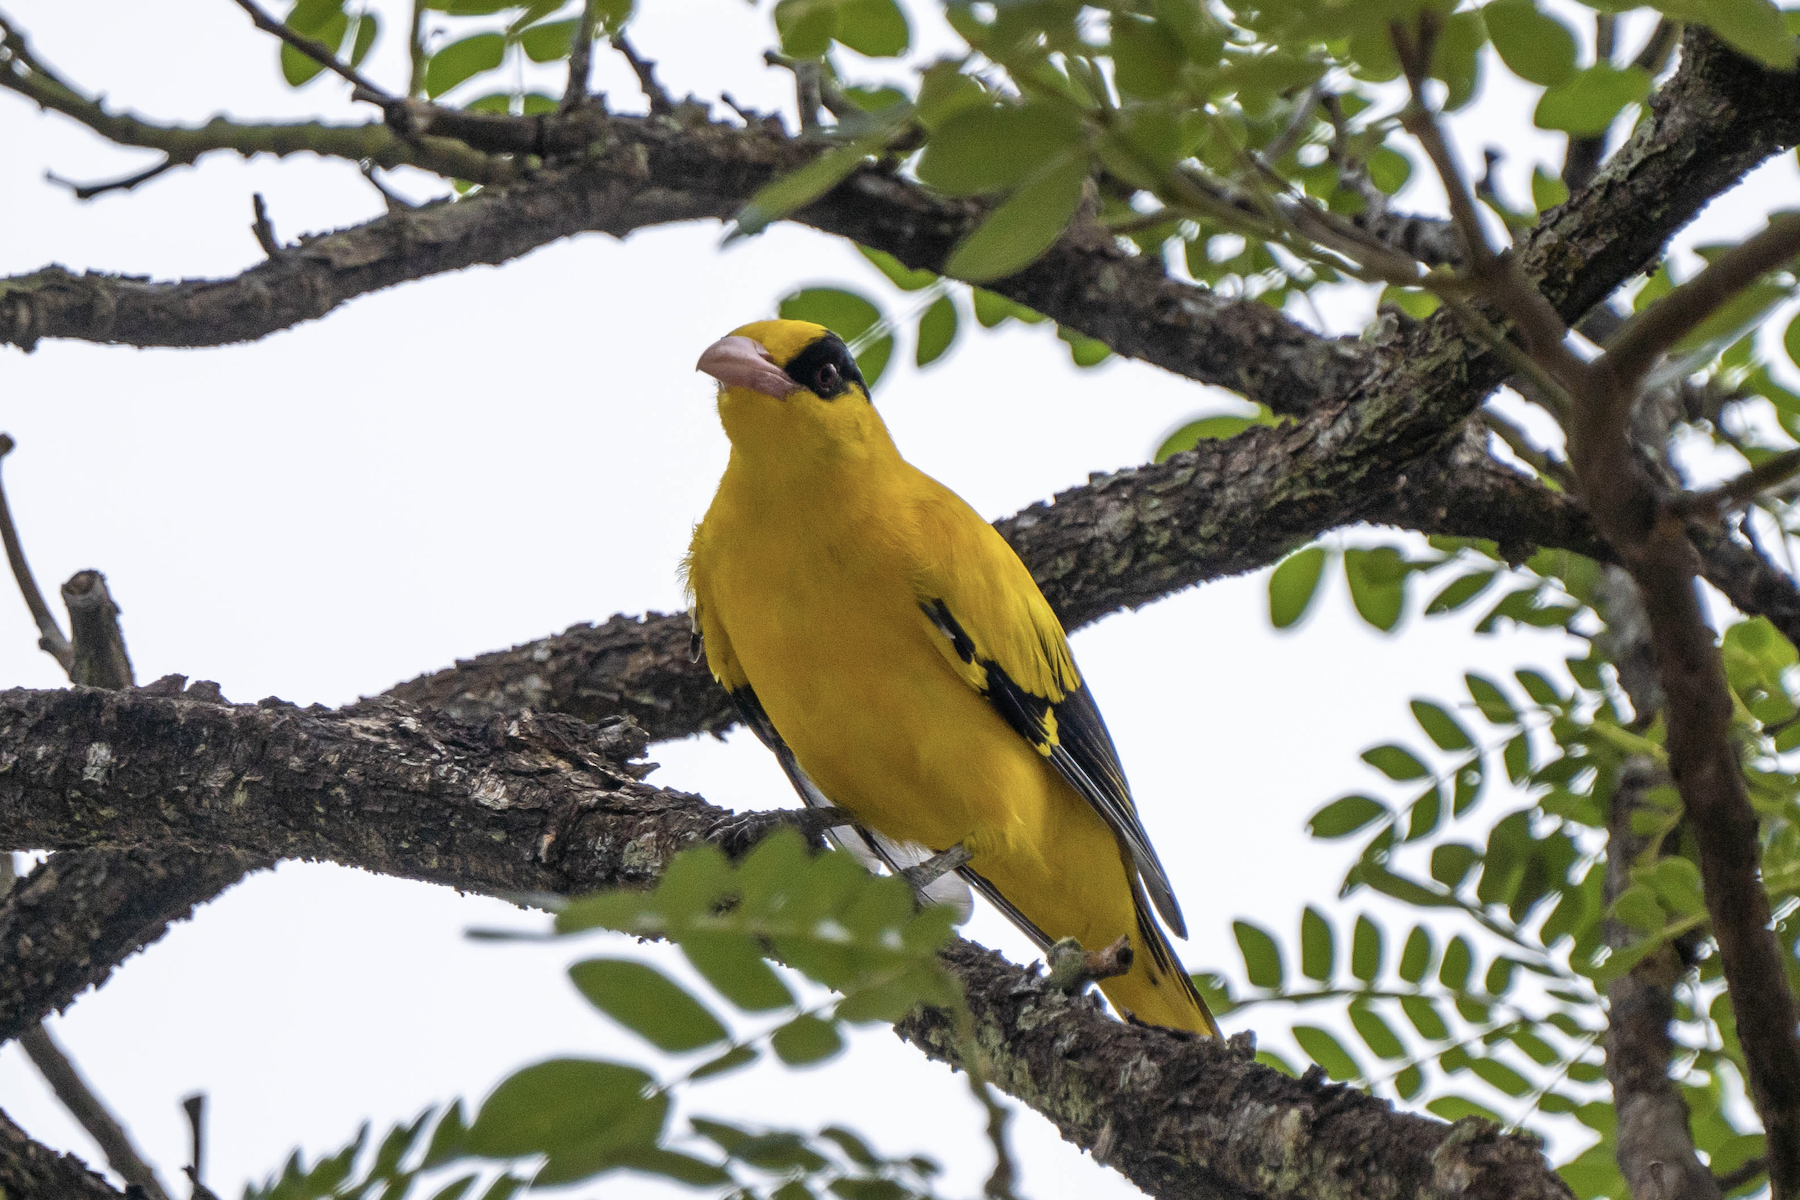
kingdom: Animalia
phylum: Chordata
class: Aves
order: Passeriformes
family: Oriolidae
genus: Oriolus
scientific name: Oriolus chinensis
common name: Black-naped oriole
